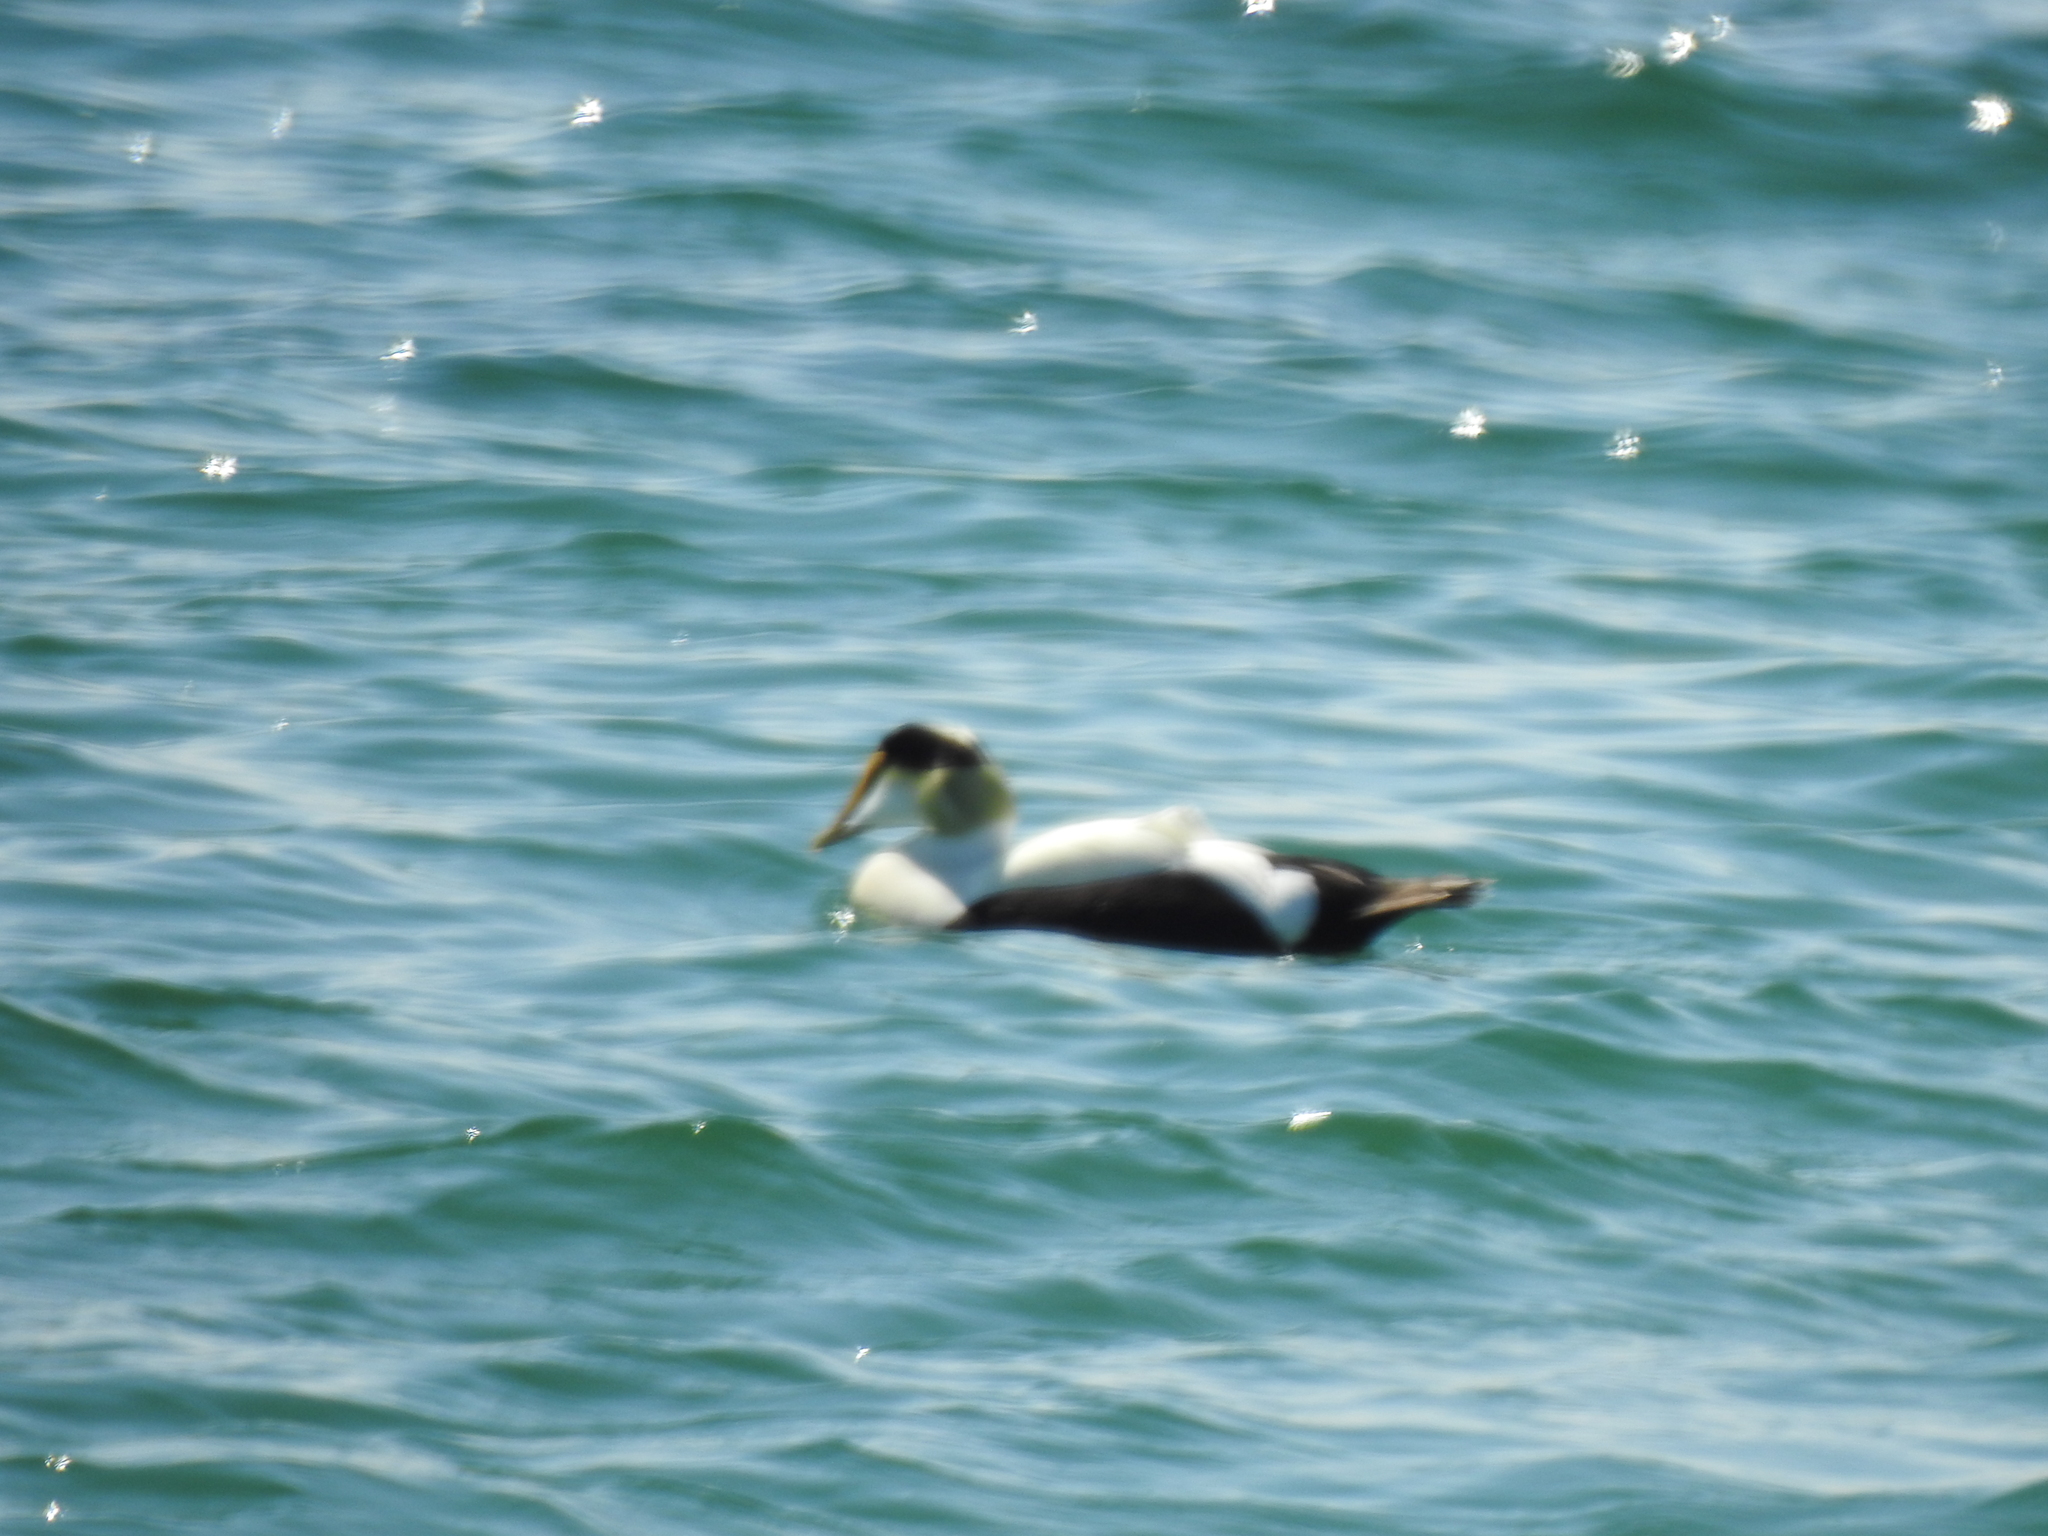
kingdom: Animalia
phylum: Chordata
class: Aves
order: Anseriformes
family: Anatidae
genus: Somateria
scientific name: Somateria mollissima
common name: Common eider
